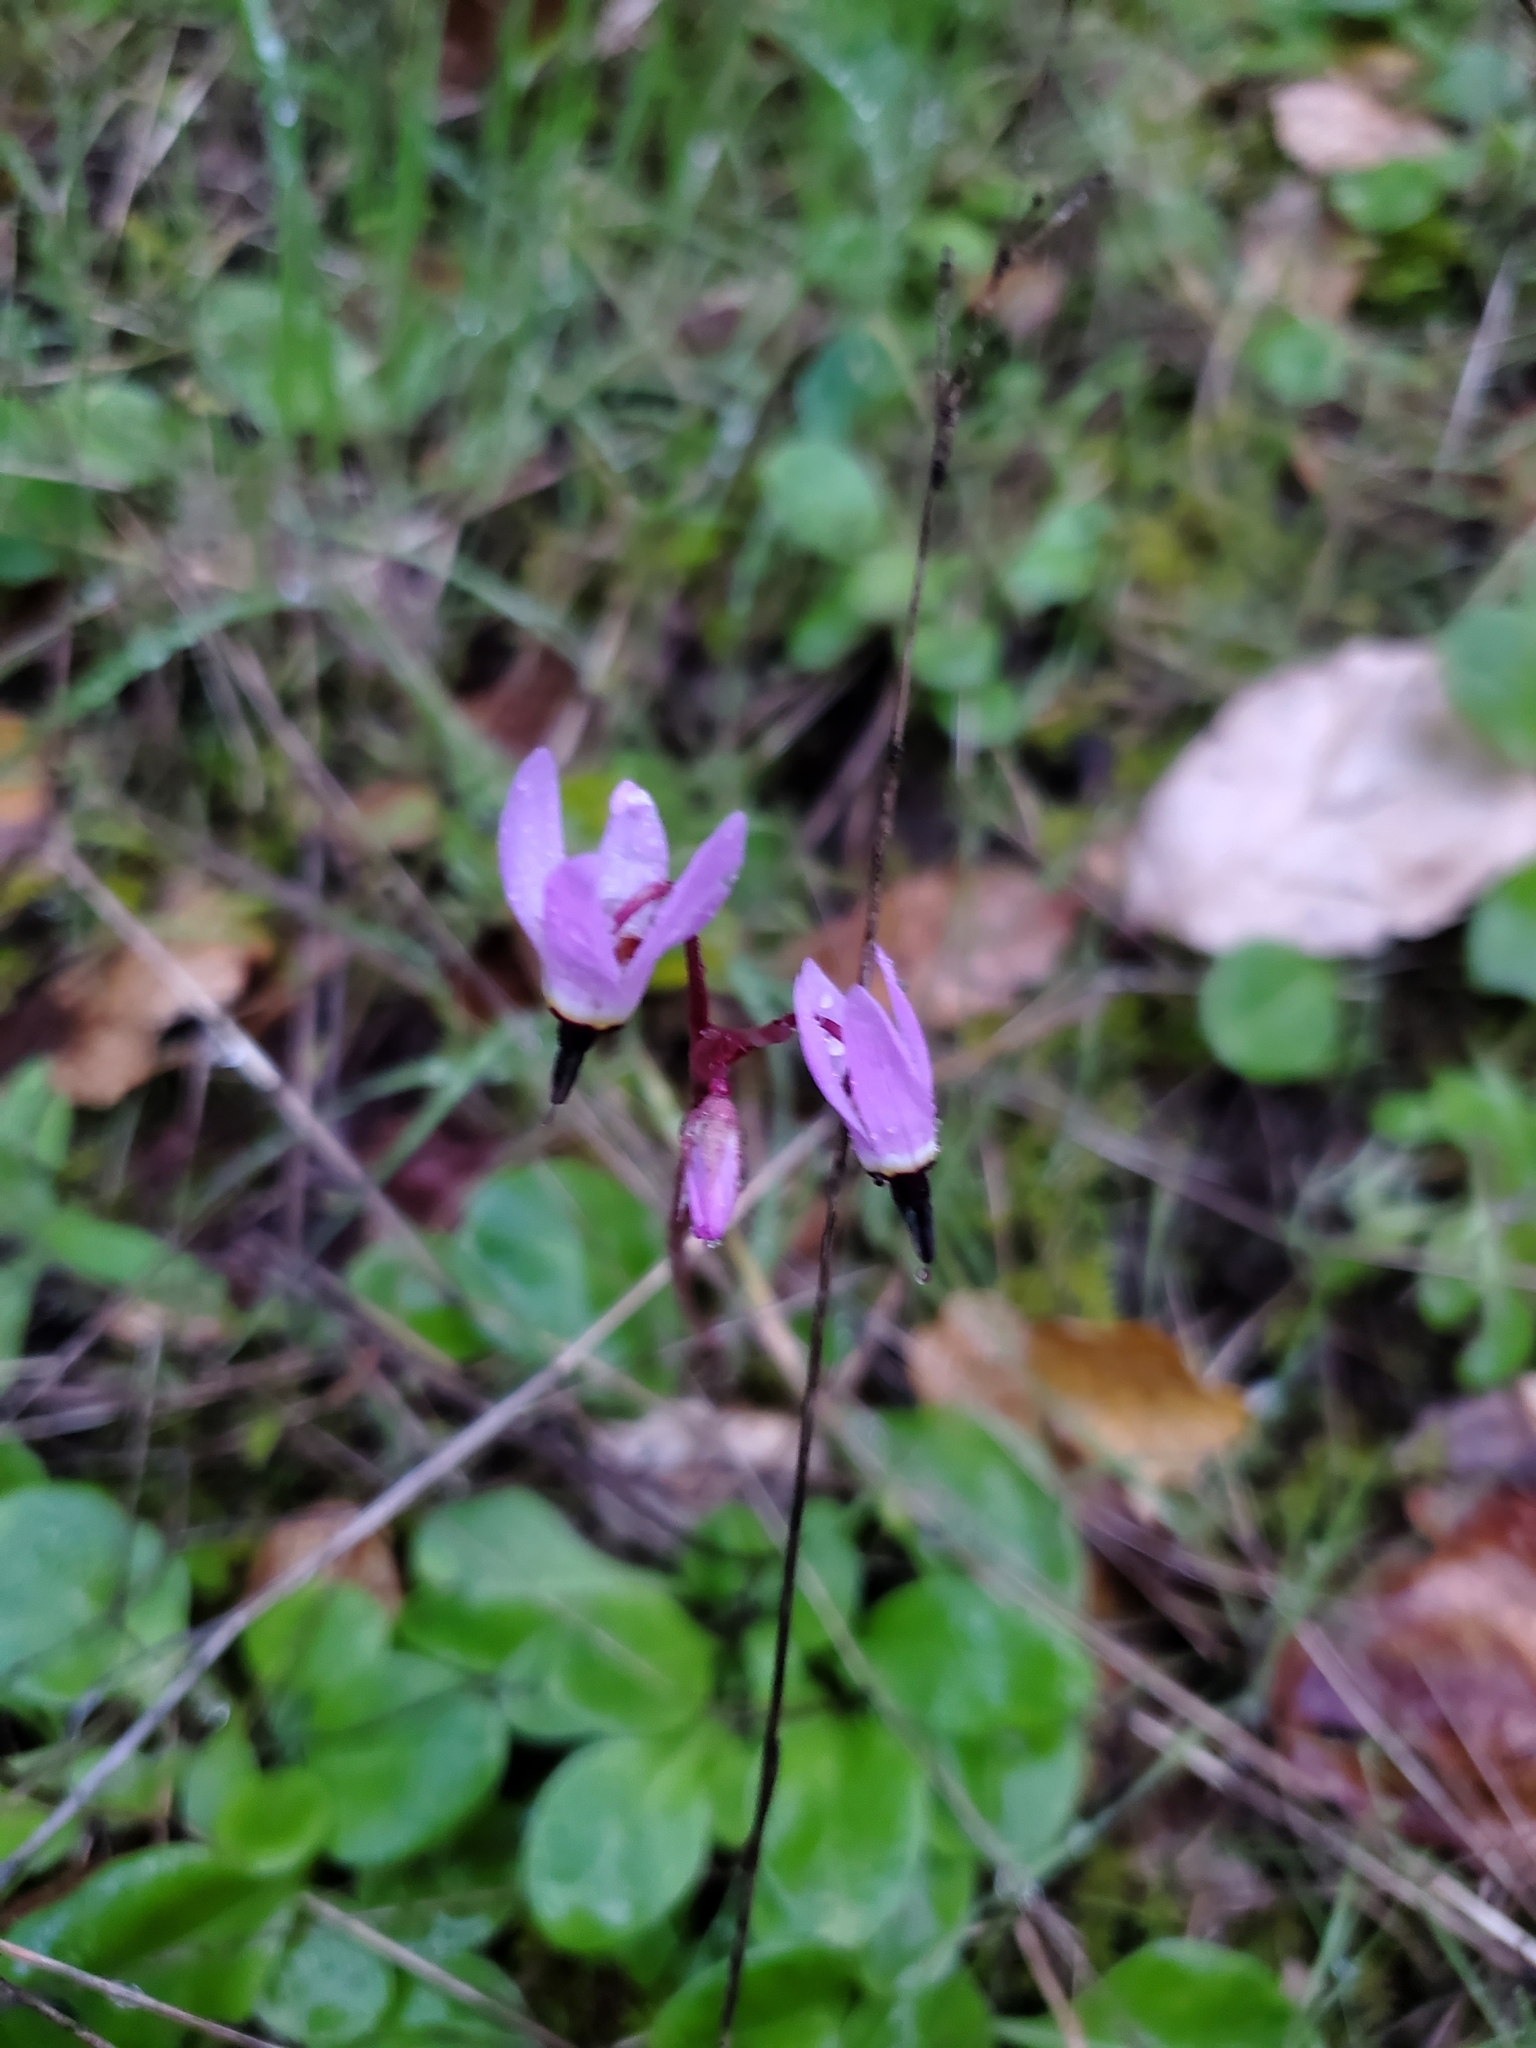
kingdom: Plantae
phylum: Tracheophyta
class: Magnoliopsida
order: Ericales
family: Primulaceae
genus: Dodecatheon
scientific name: Dodecatheon hendersonii
